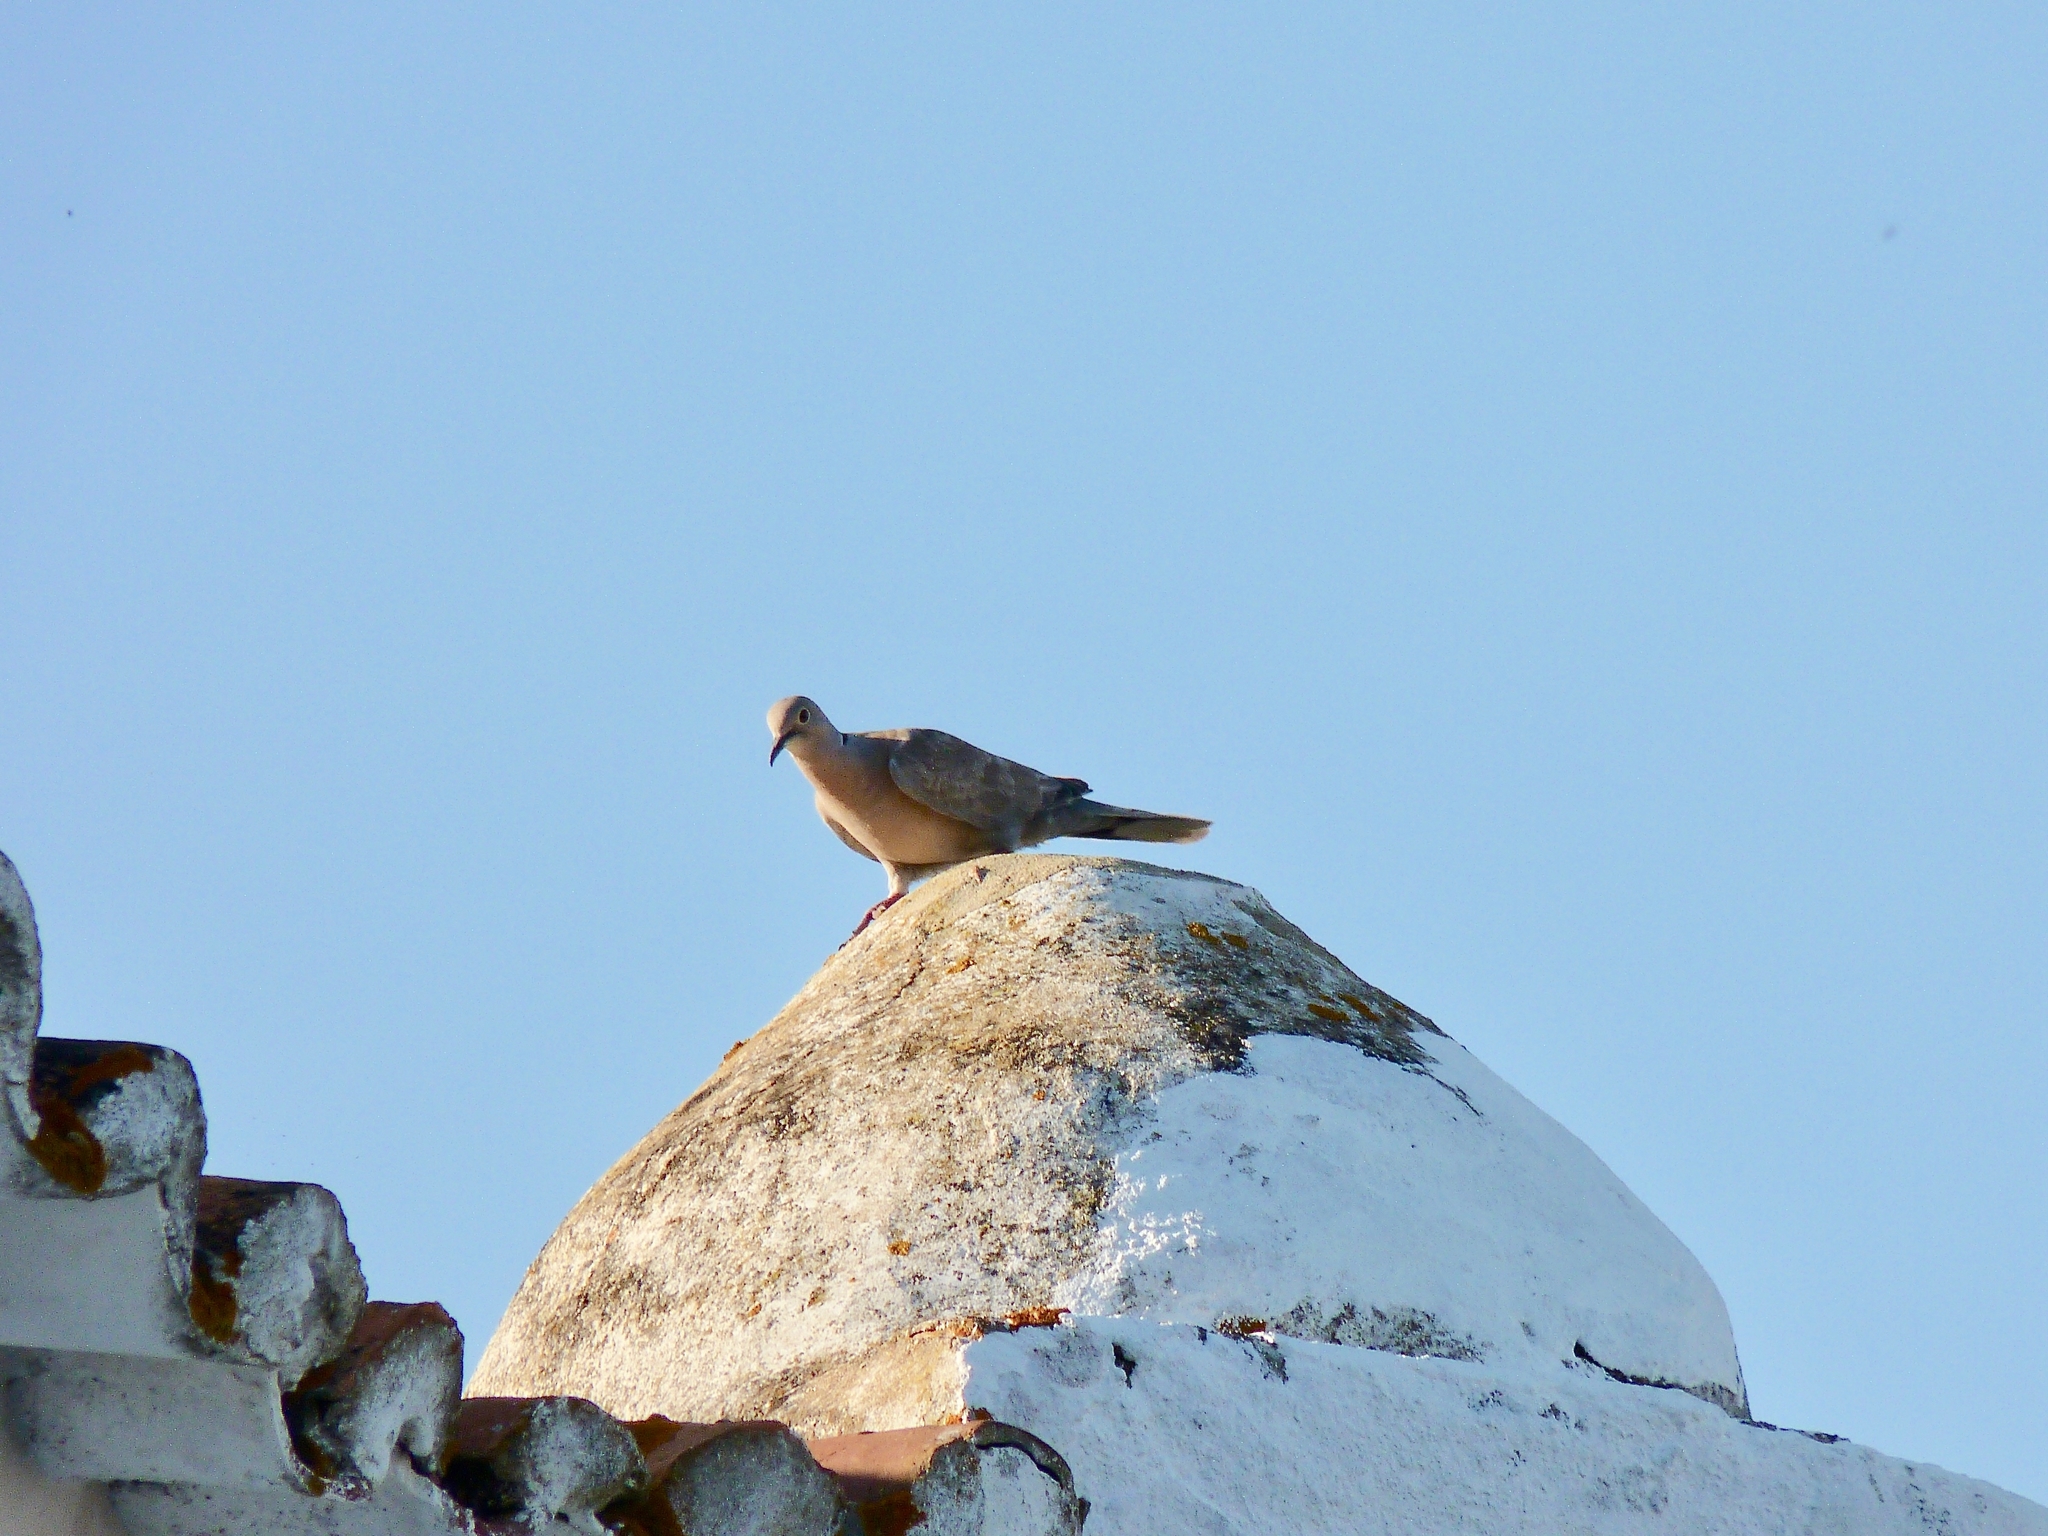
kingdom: Animalia
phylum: Chordata
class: Aves
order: Columbiformes
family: Columbidae
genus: Streptopelia
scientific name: Streptopelia decaocto
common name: Eurasian collared dove
